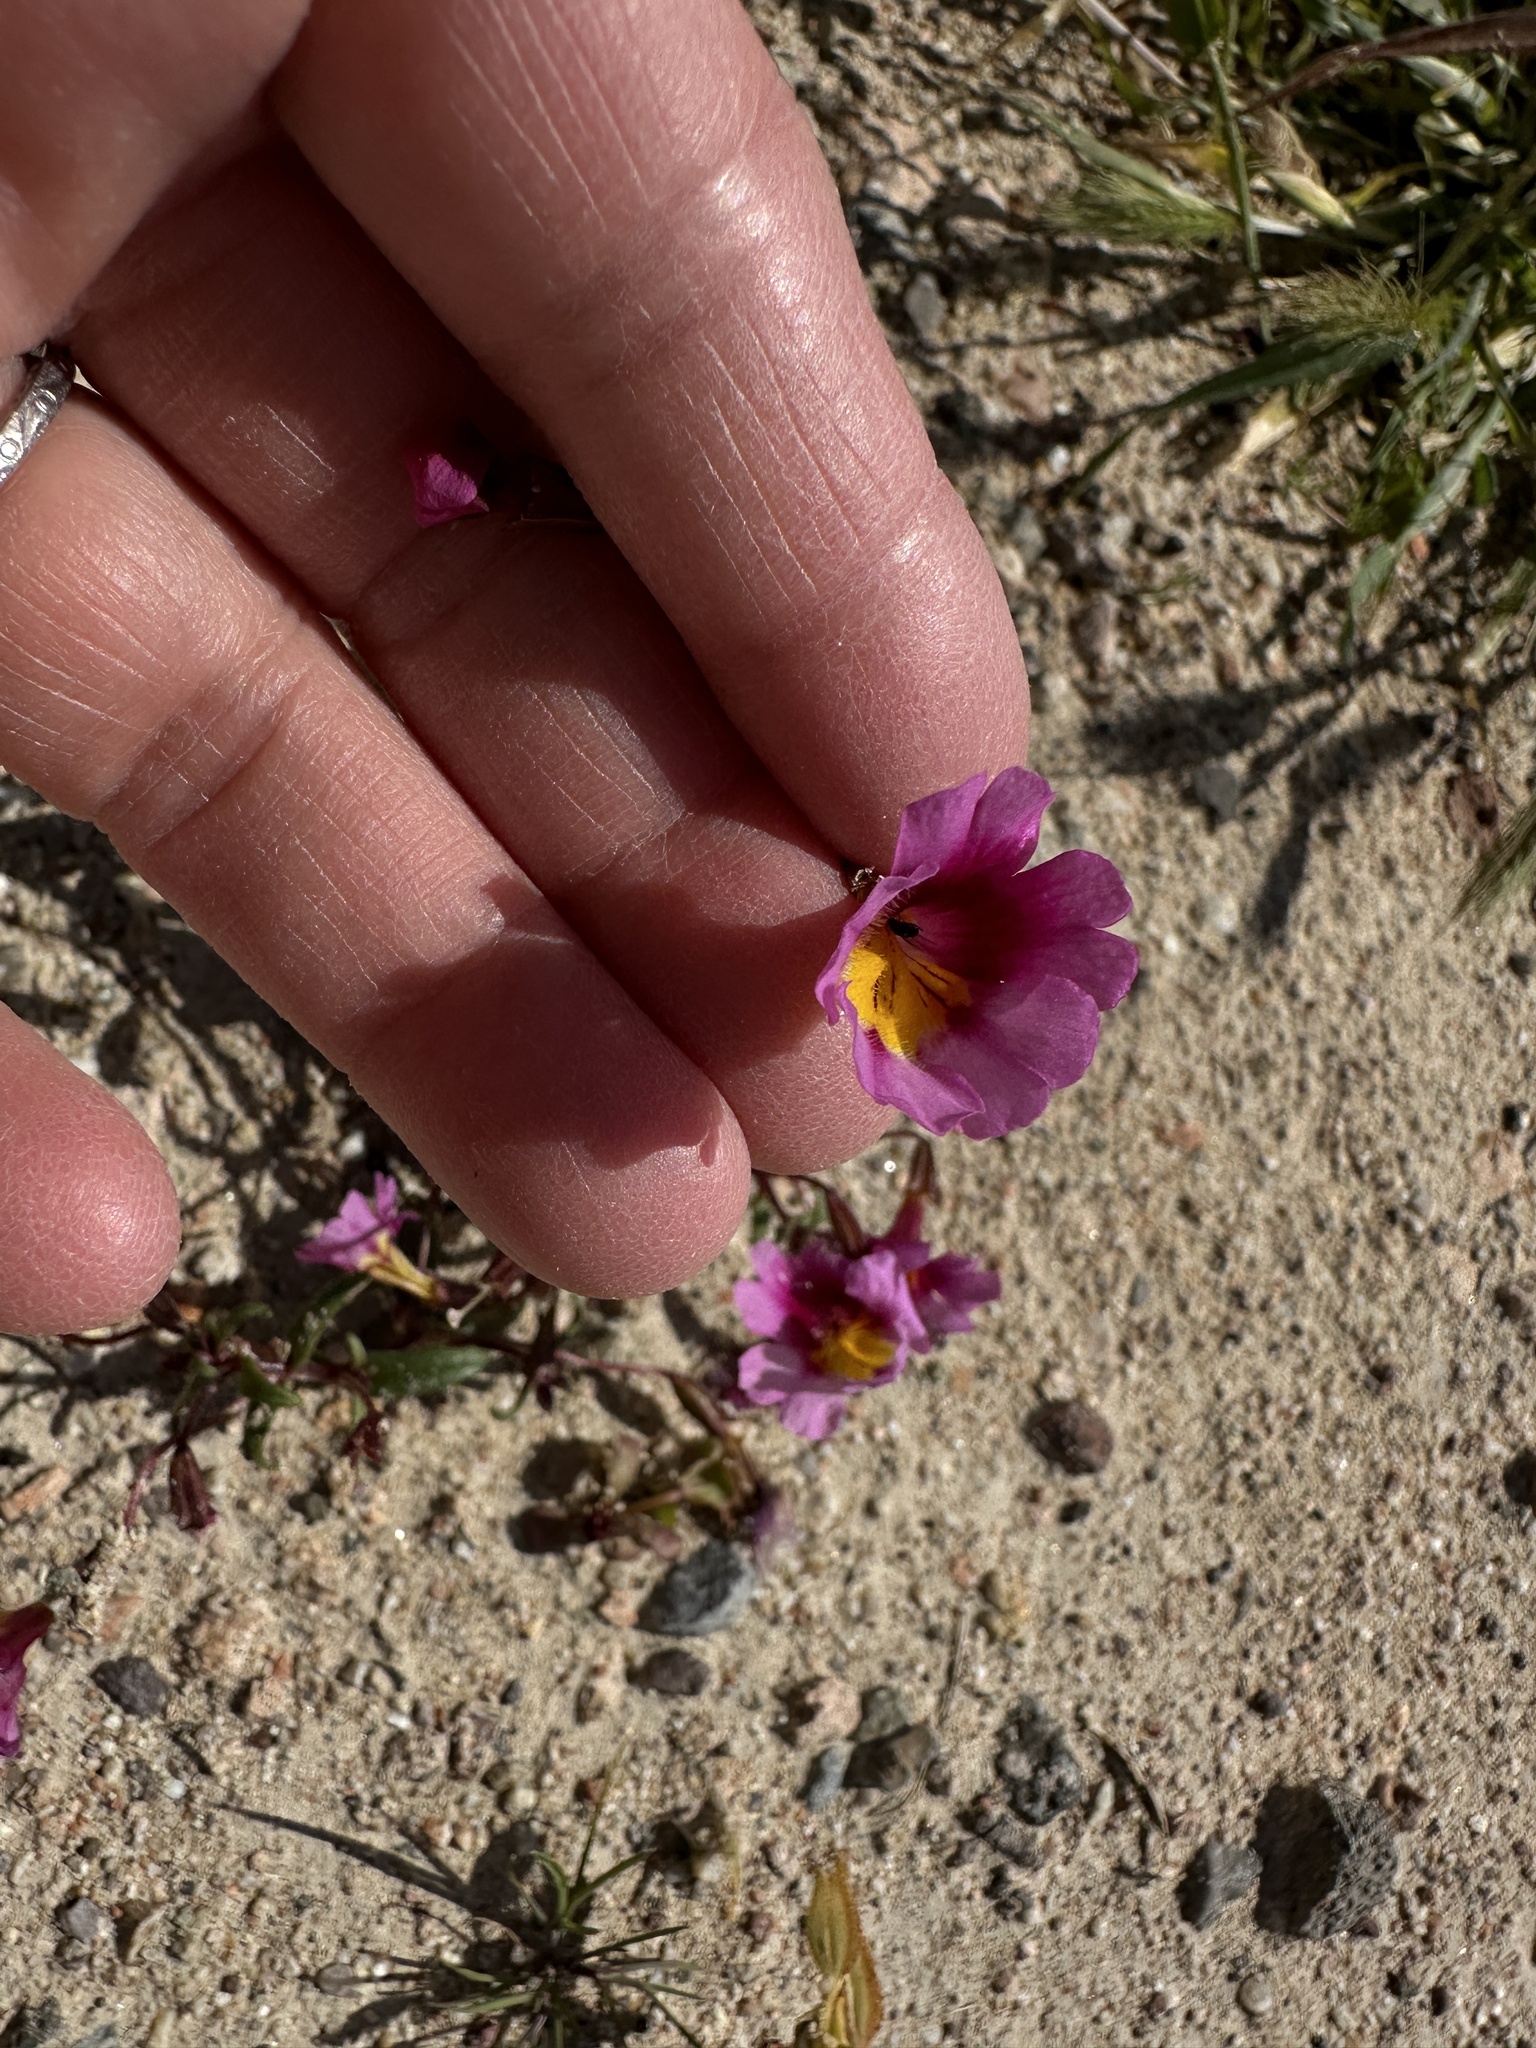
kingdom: Plantae
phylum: Tracheophyta
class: Magnoliopsida
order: Lamiales
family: Phrymaceae
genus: Erythranthe
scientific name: Erythranthe rhodopetra
